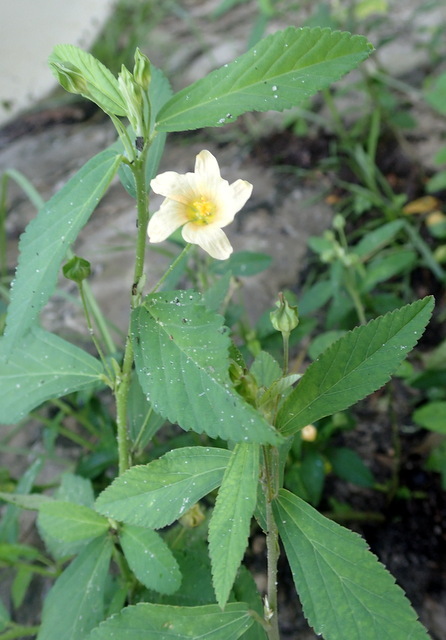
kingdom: Plantae
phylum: Tracheophyta
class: Magnoliopsida
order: Malvales
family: Malvaceae
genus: Sida
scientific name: Sida rhombifolia
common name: Queensland-hemp
